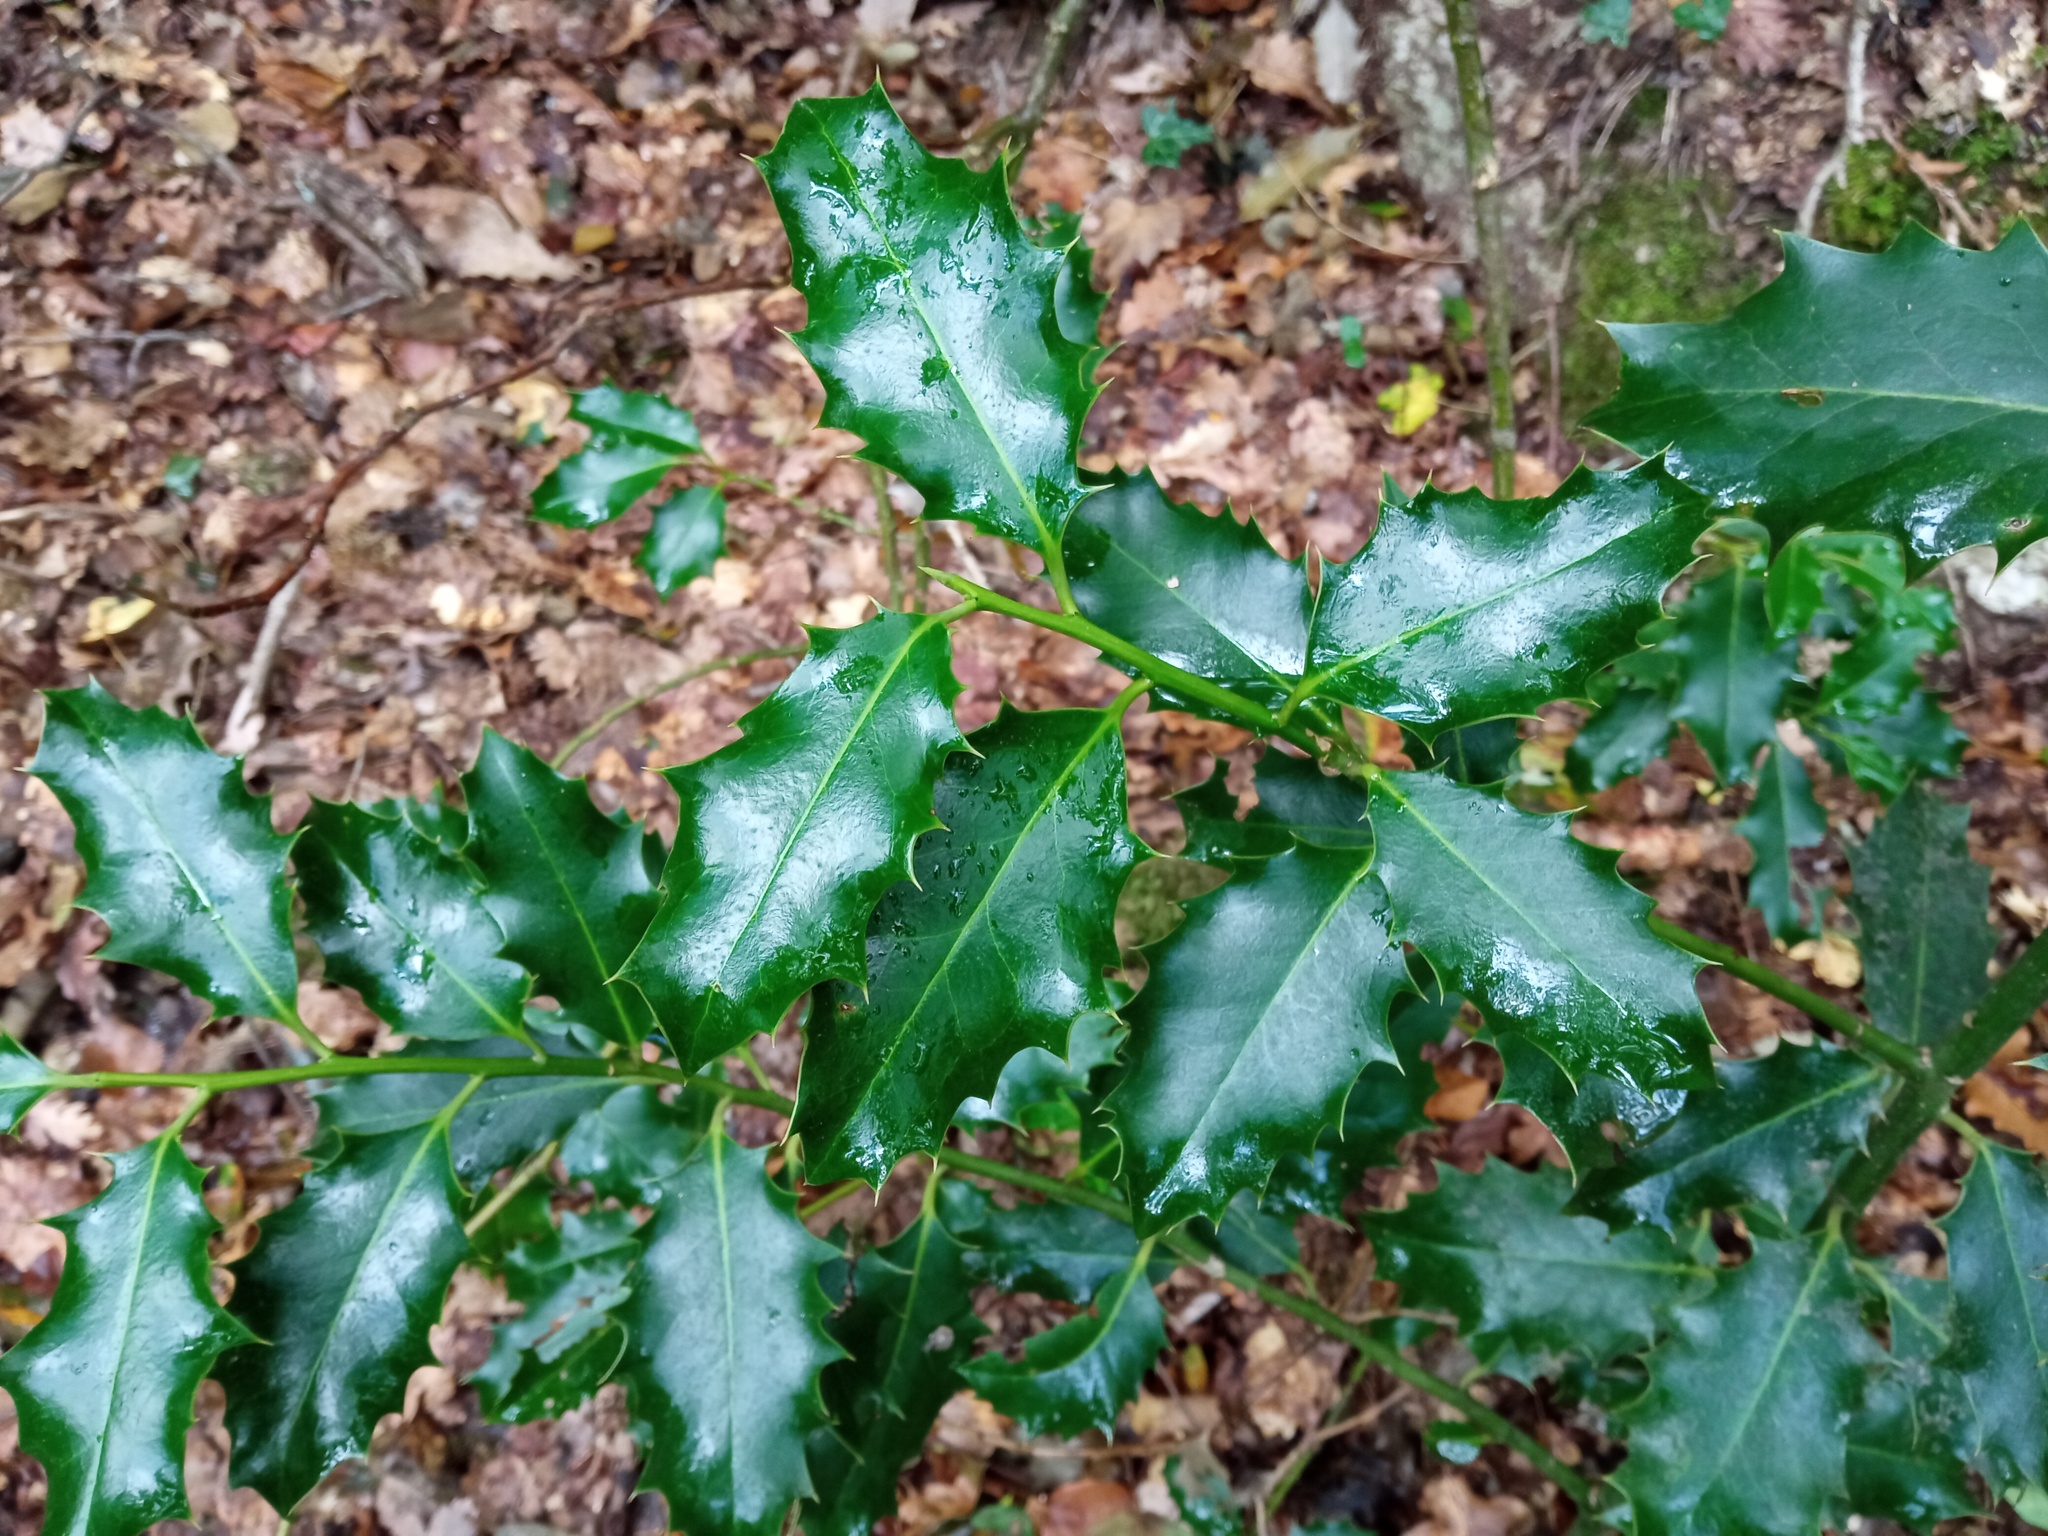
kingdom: Plantae
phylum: Tracheophyta
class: Magnoliopsida
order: Aquifoliales
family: Aquifoliaceae
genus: Ilex
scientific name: Ilex aquifolium
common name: English holly
